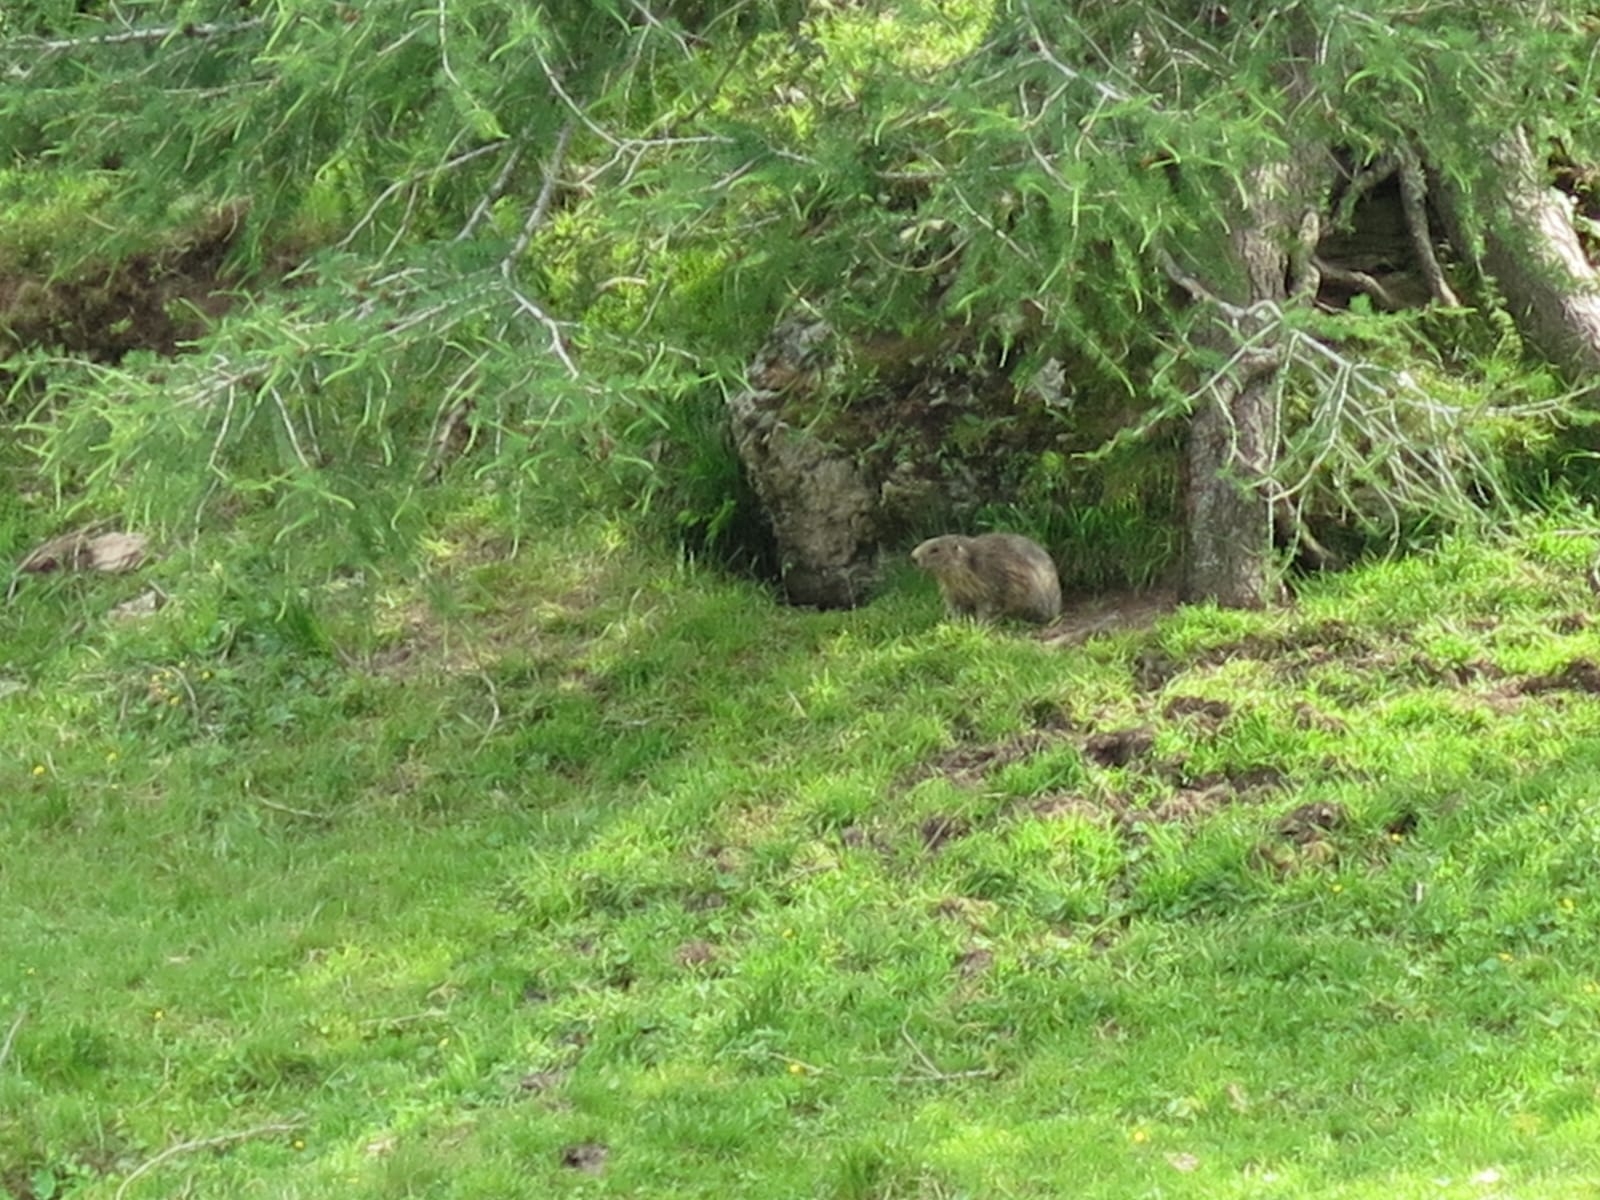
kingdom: Animalia
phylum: Chordata
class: Mammalia
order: Rodentia
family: Sciuridae
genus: Marmota
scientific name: Marmota marmota
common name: Alpine marmot
